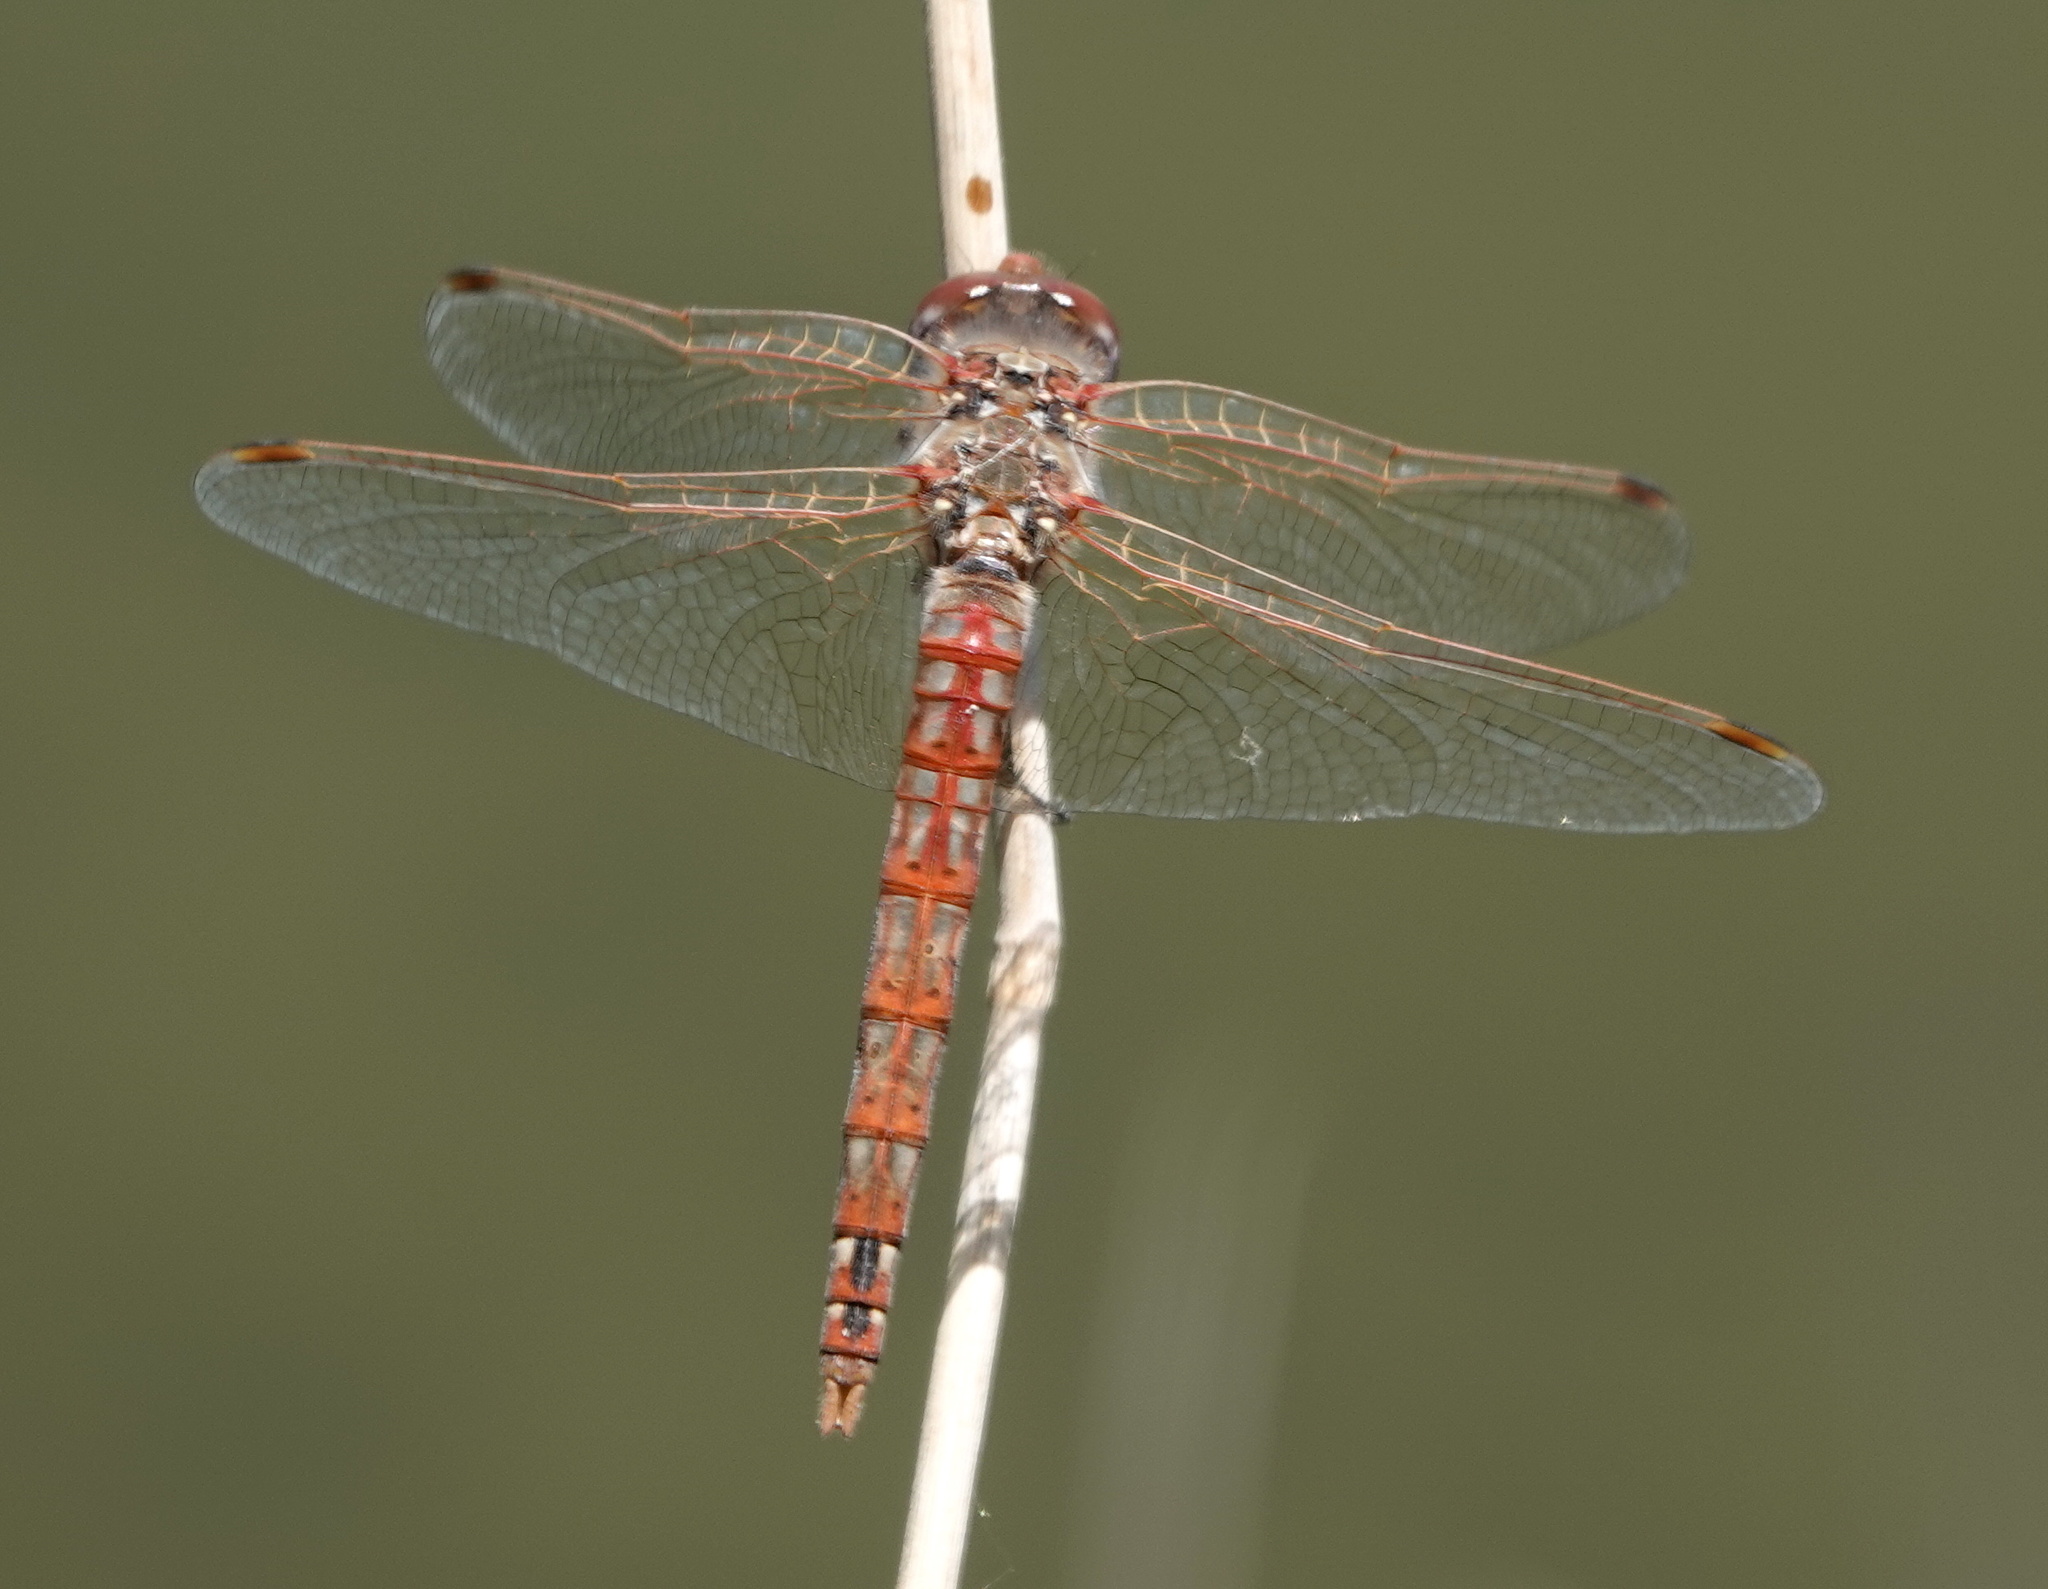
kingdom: Animalia
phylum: Arthropoda
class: Insecta
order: Odonata
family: Libellulidae
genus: Sympetrum
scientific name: Sympetrum corruptum
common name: Variegated meadowhawk
